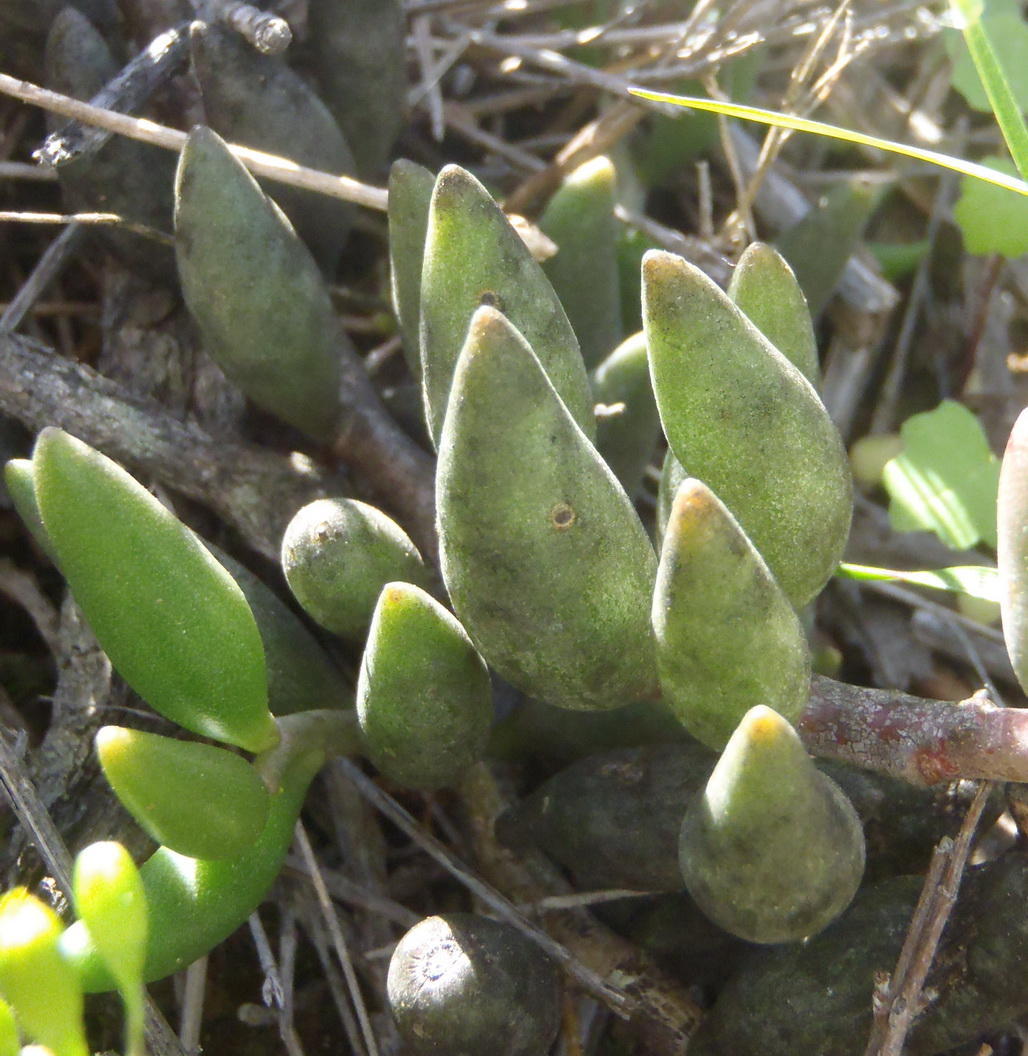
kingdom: Plantae
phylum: Tracheophyta
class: Magnoliopsida
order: Saxifragales
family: Crassulaceae
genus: Adromischus
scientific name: Adromischus filicaulis
